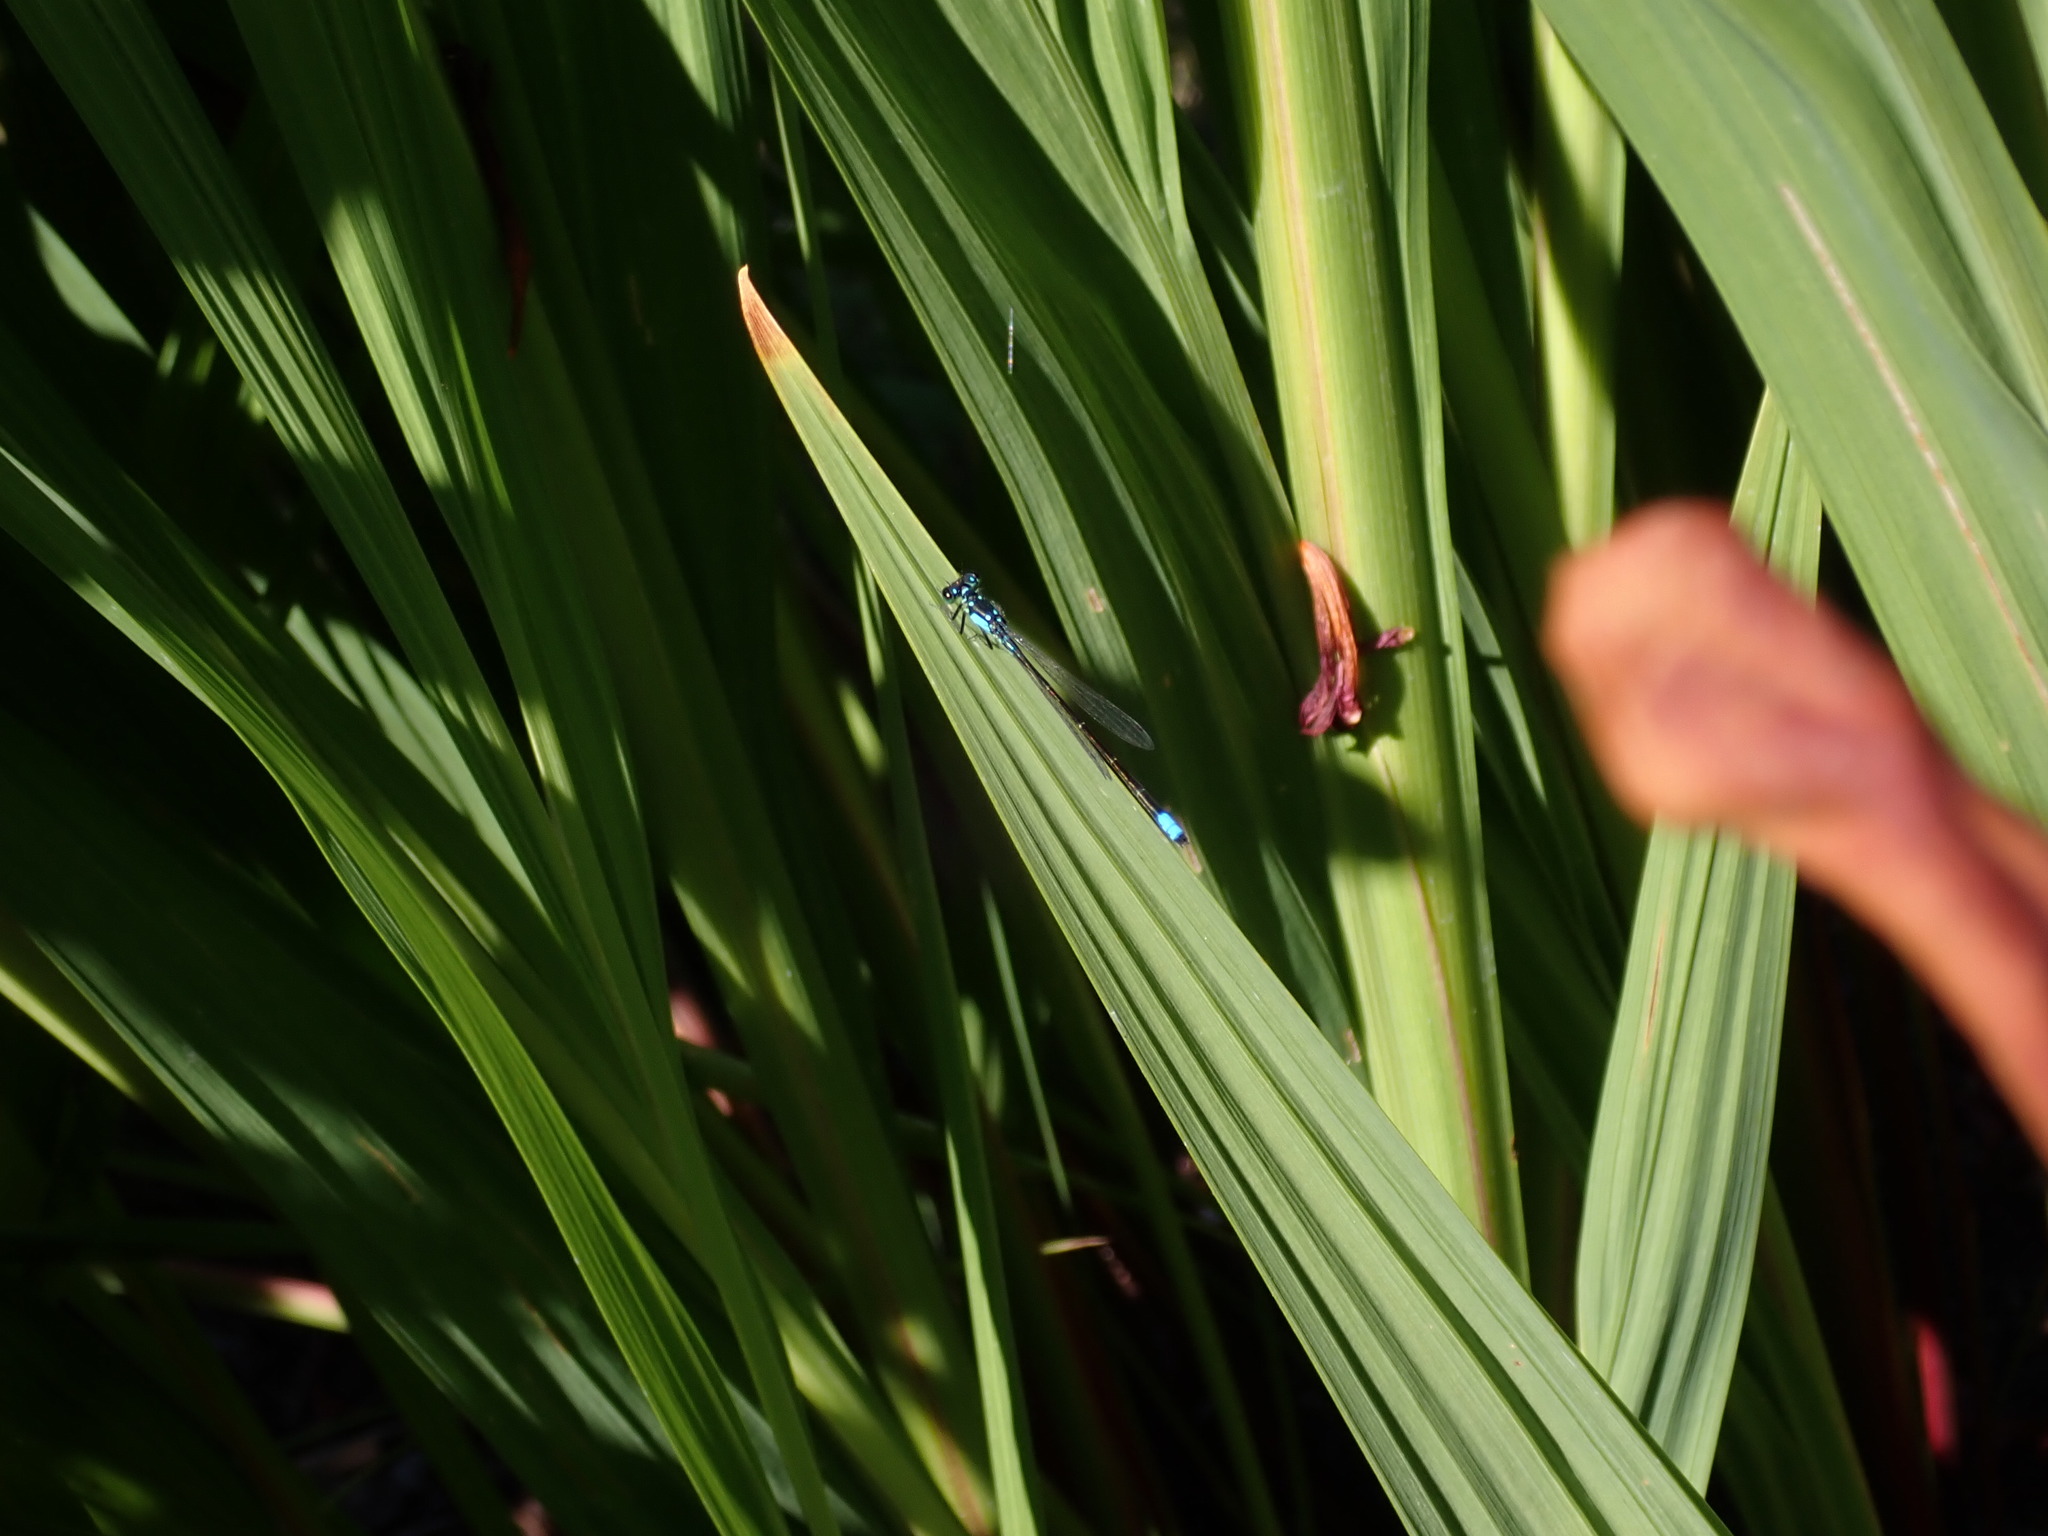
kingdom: Animalia
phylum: Arthropoda
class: Insecta
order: Odonata
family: Coenagrionidae
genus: Ischnura
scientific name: Ischnura cervula
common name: Pacific forktail
